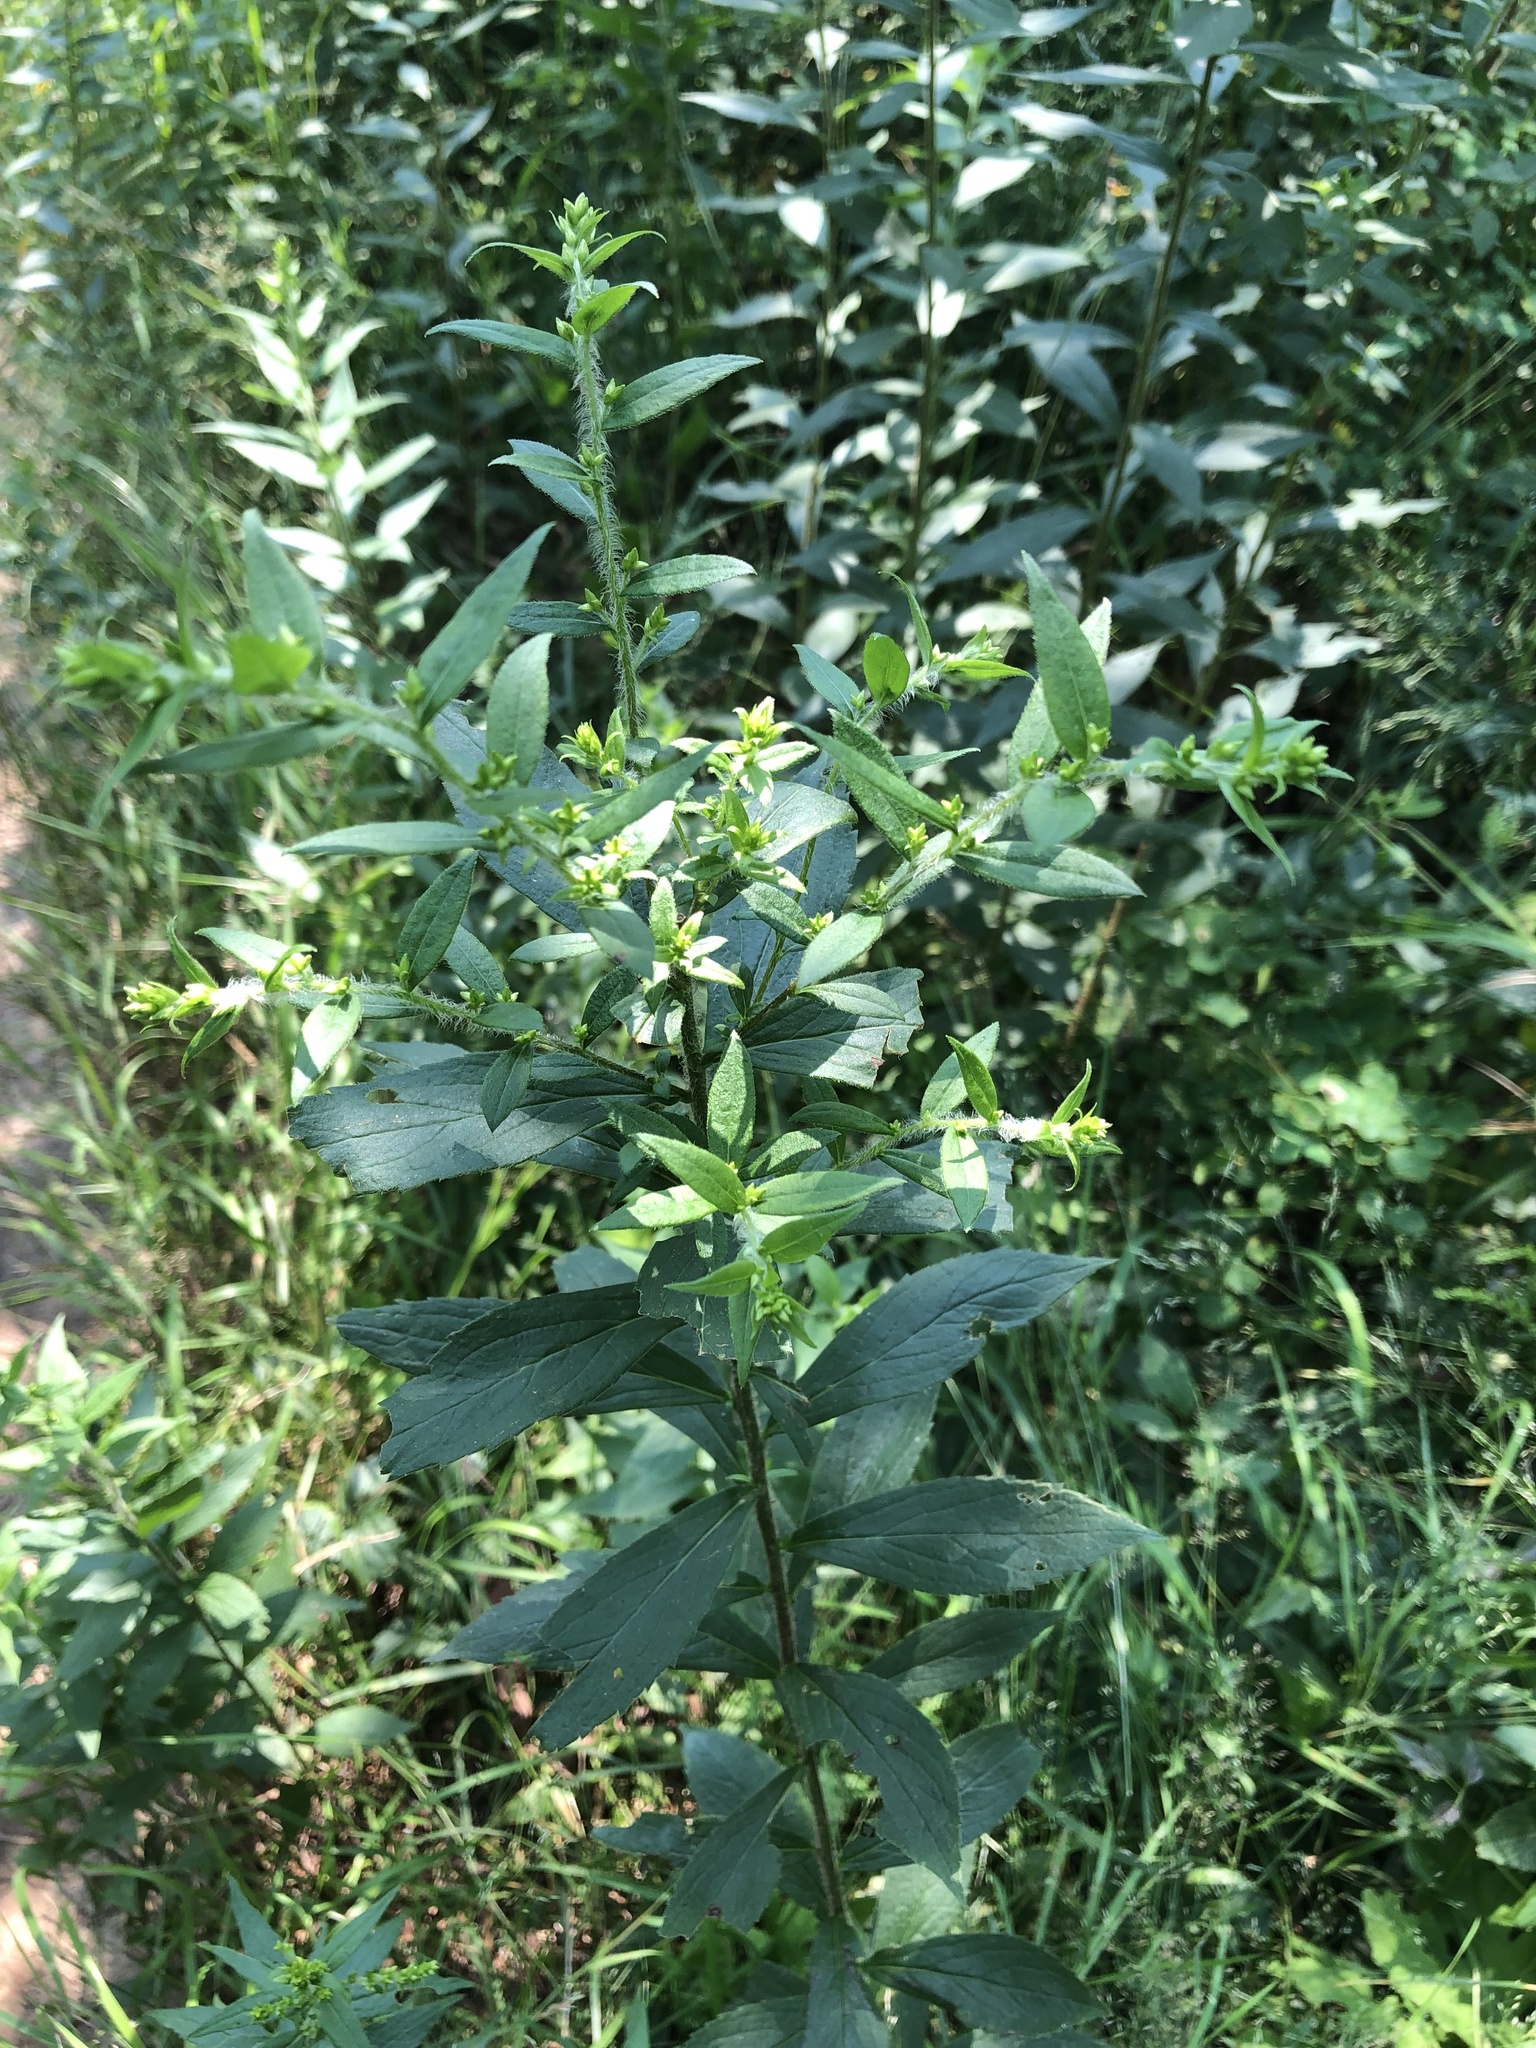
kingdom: Plantae
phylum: Tracheophyta
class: Magnoliopsida
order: Asterales
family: Asteraceae
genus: Solidago
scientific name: Solidago rugosa
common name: Rough-stemmed goldenrod
